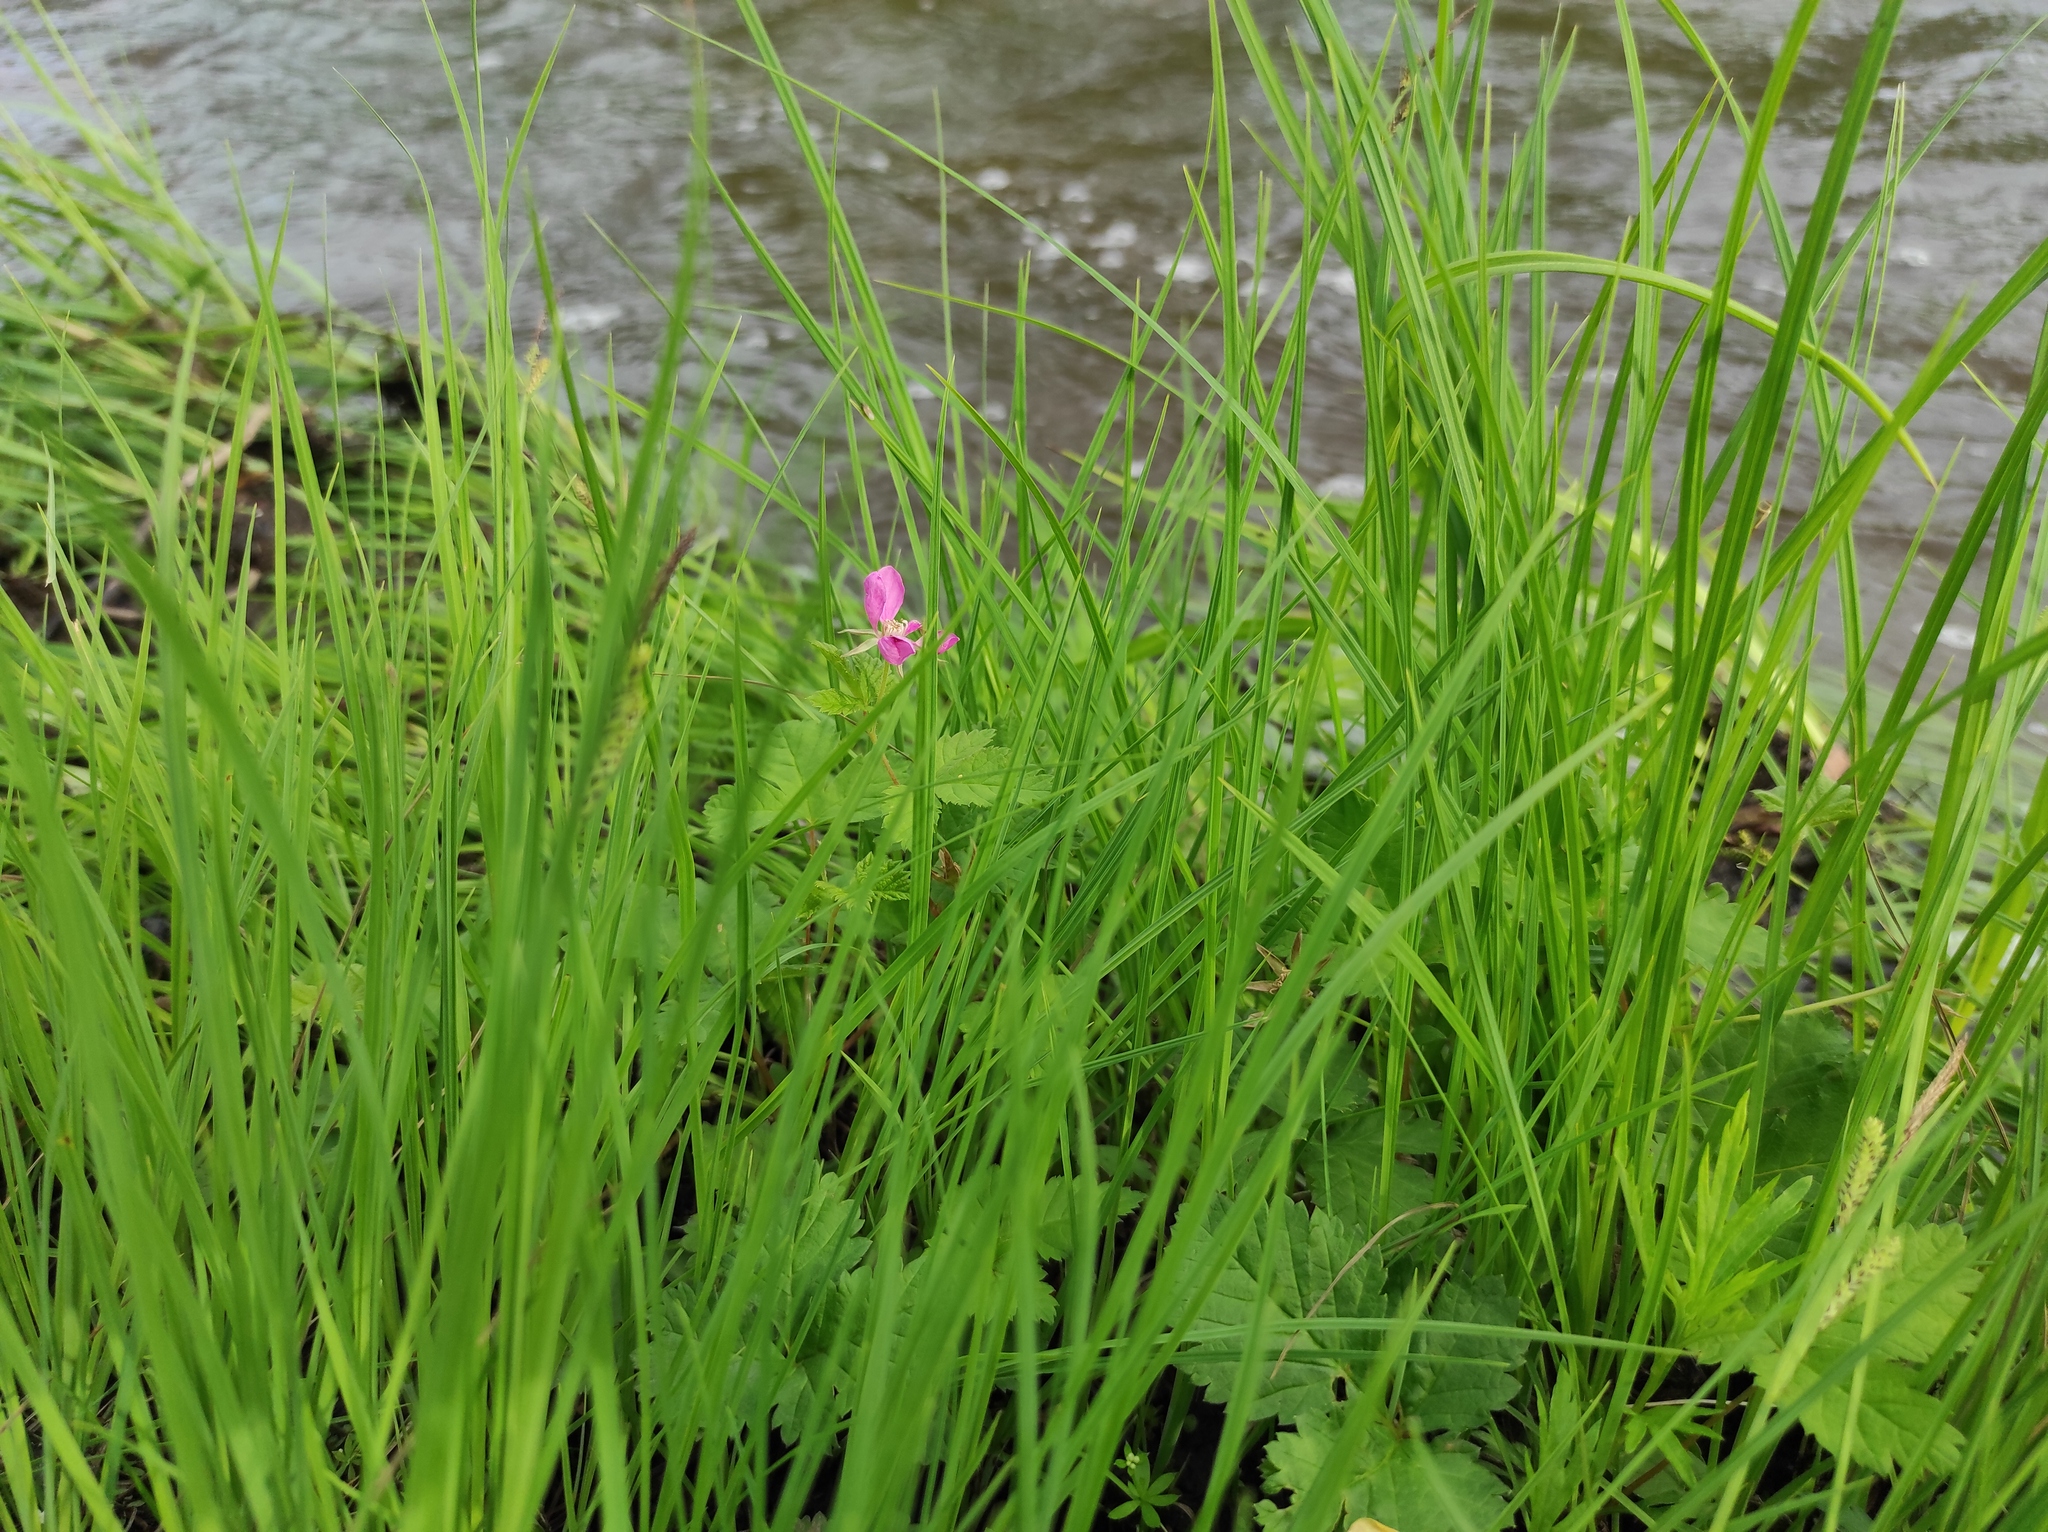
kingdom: Plantae
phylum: Tracheophyta
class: Magnoliopsida
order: Rosales
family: Rosaceae
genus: Rubus
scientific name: Rubus arcticus
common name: Arctic bramble
